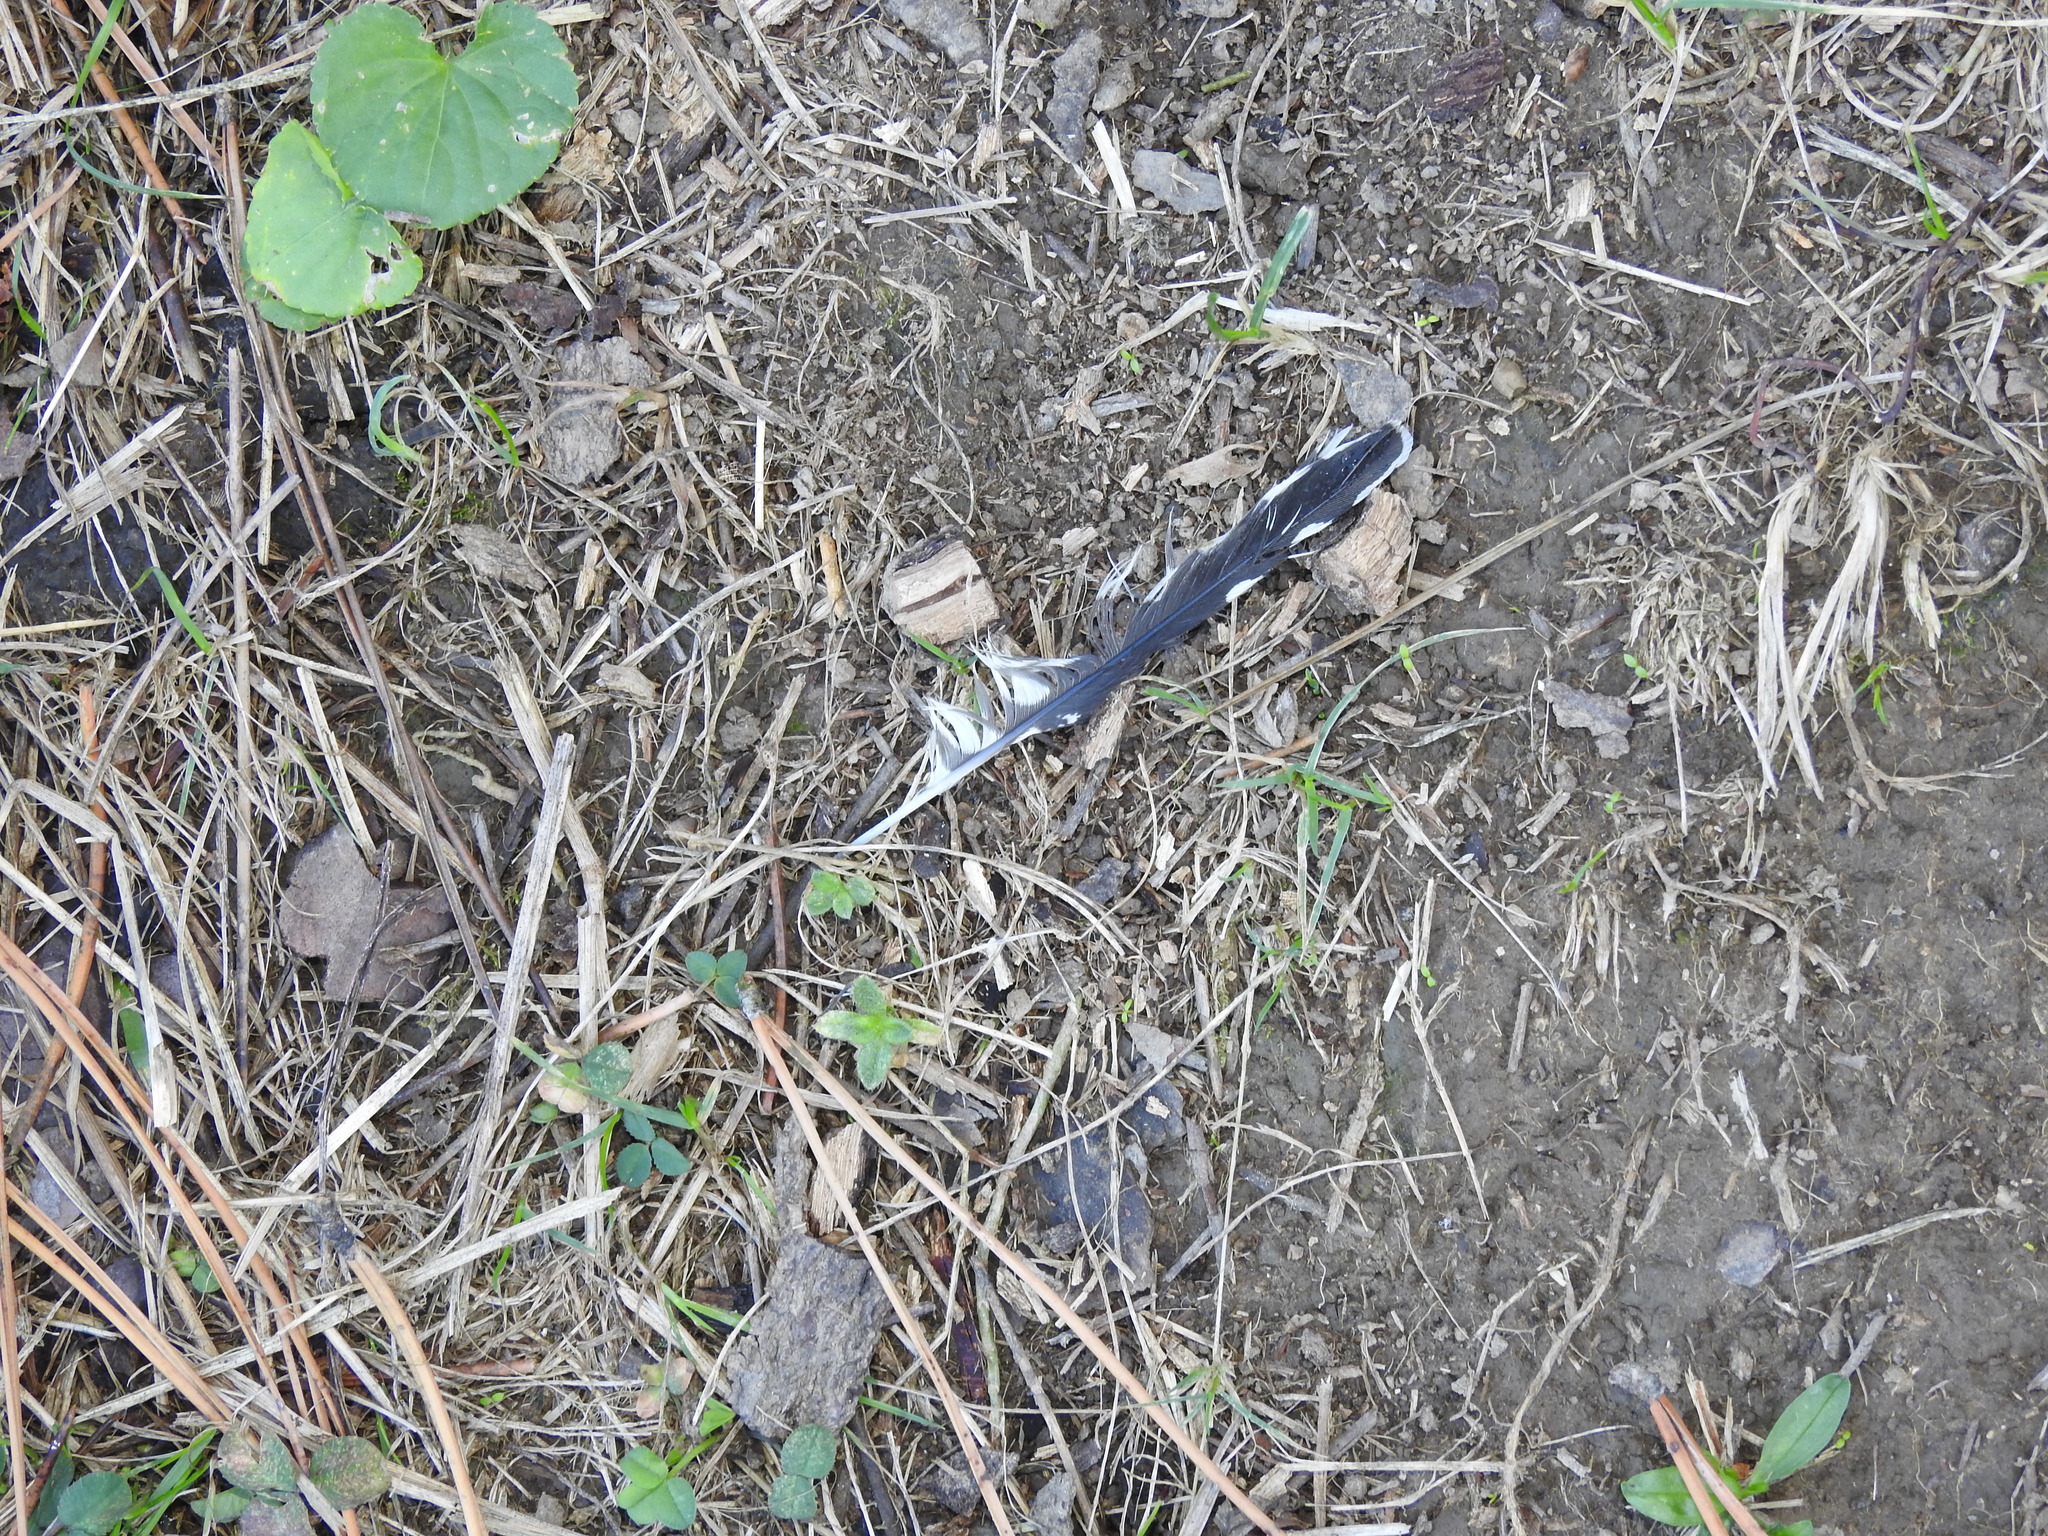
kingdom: Animalia
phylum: Chordata
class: Aves
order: Piciformes
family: Picidae
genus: Sphyrapicus
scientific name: Sphyrapicus varius
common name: Yellow-bellied sapsucker
